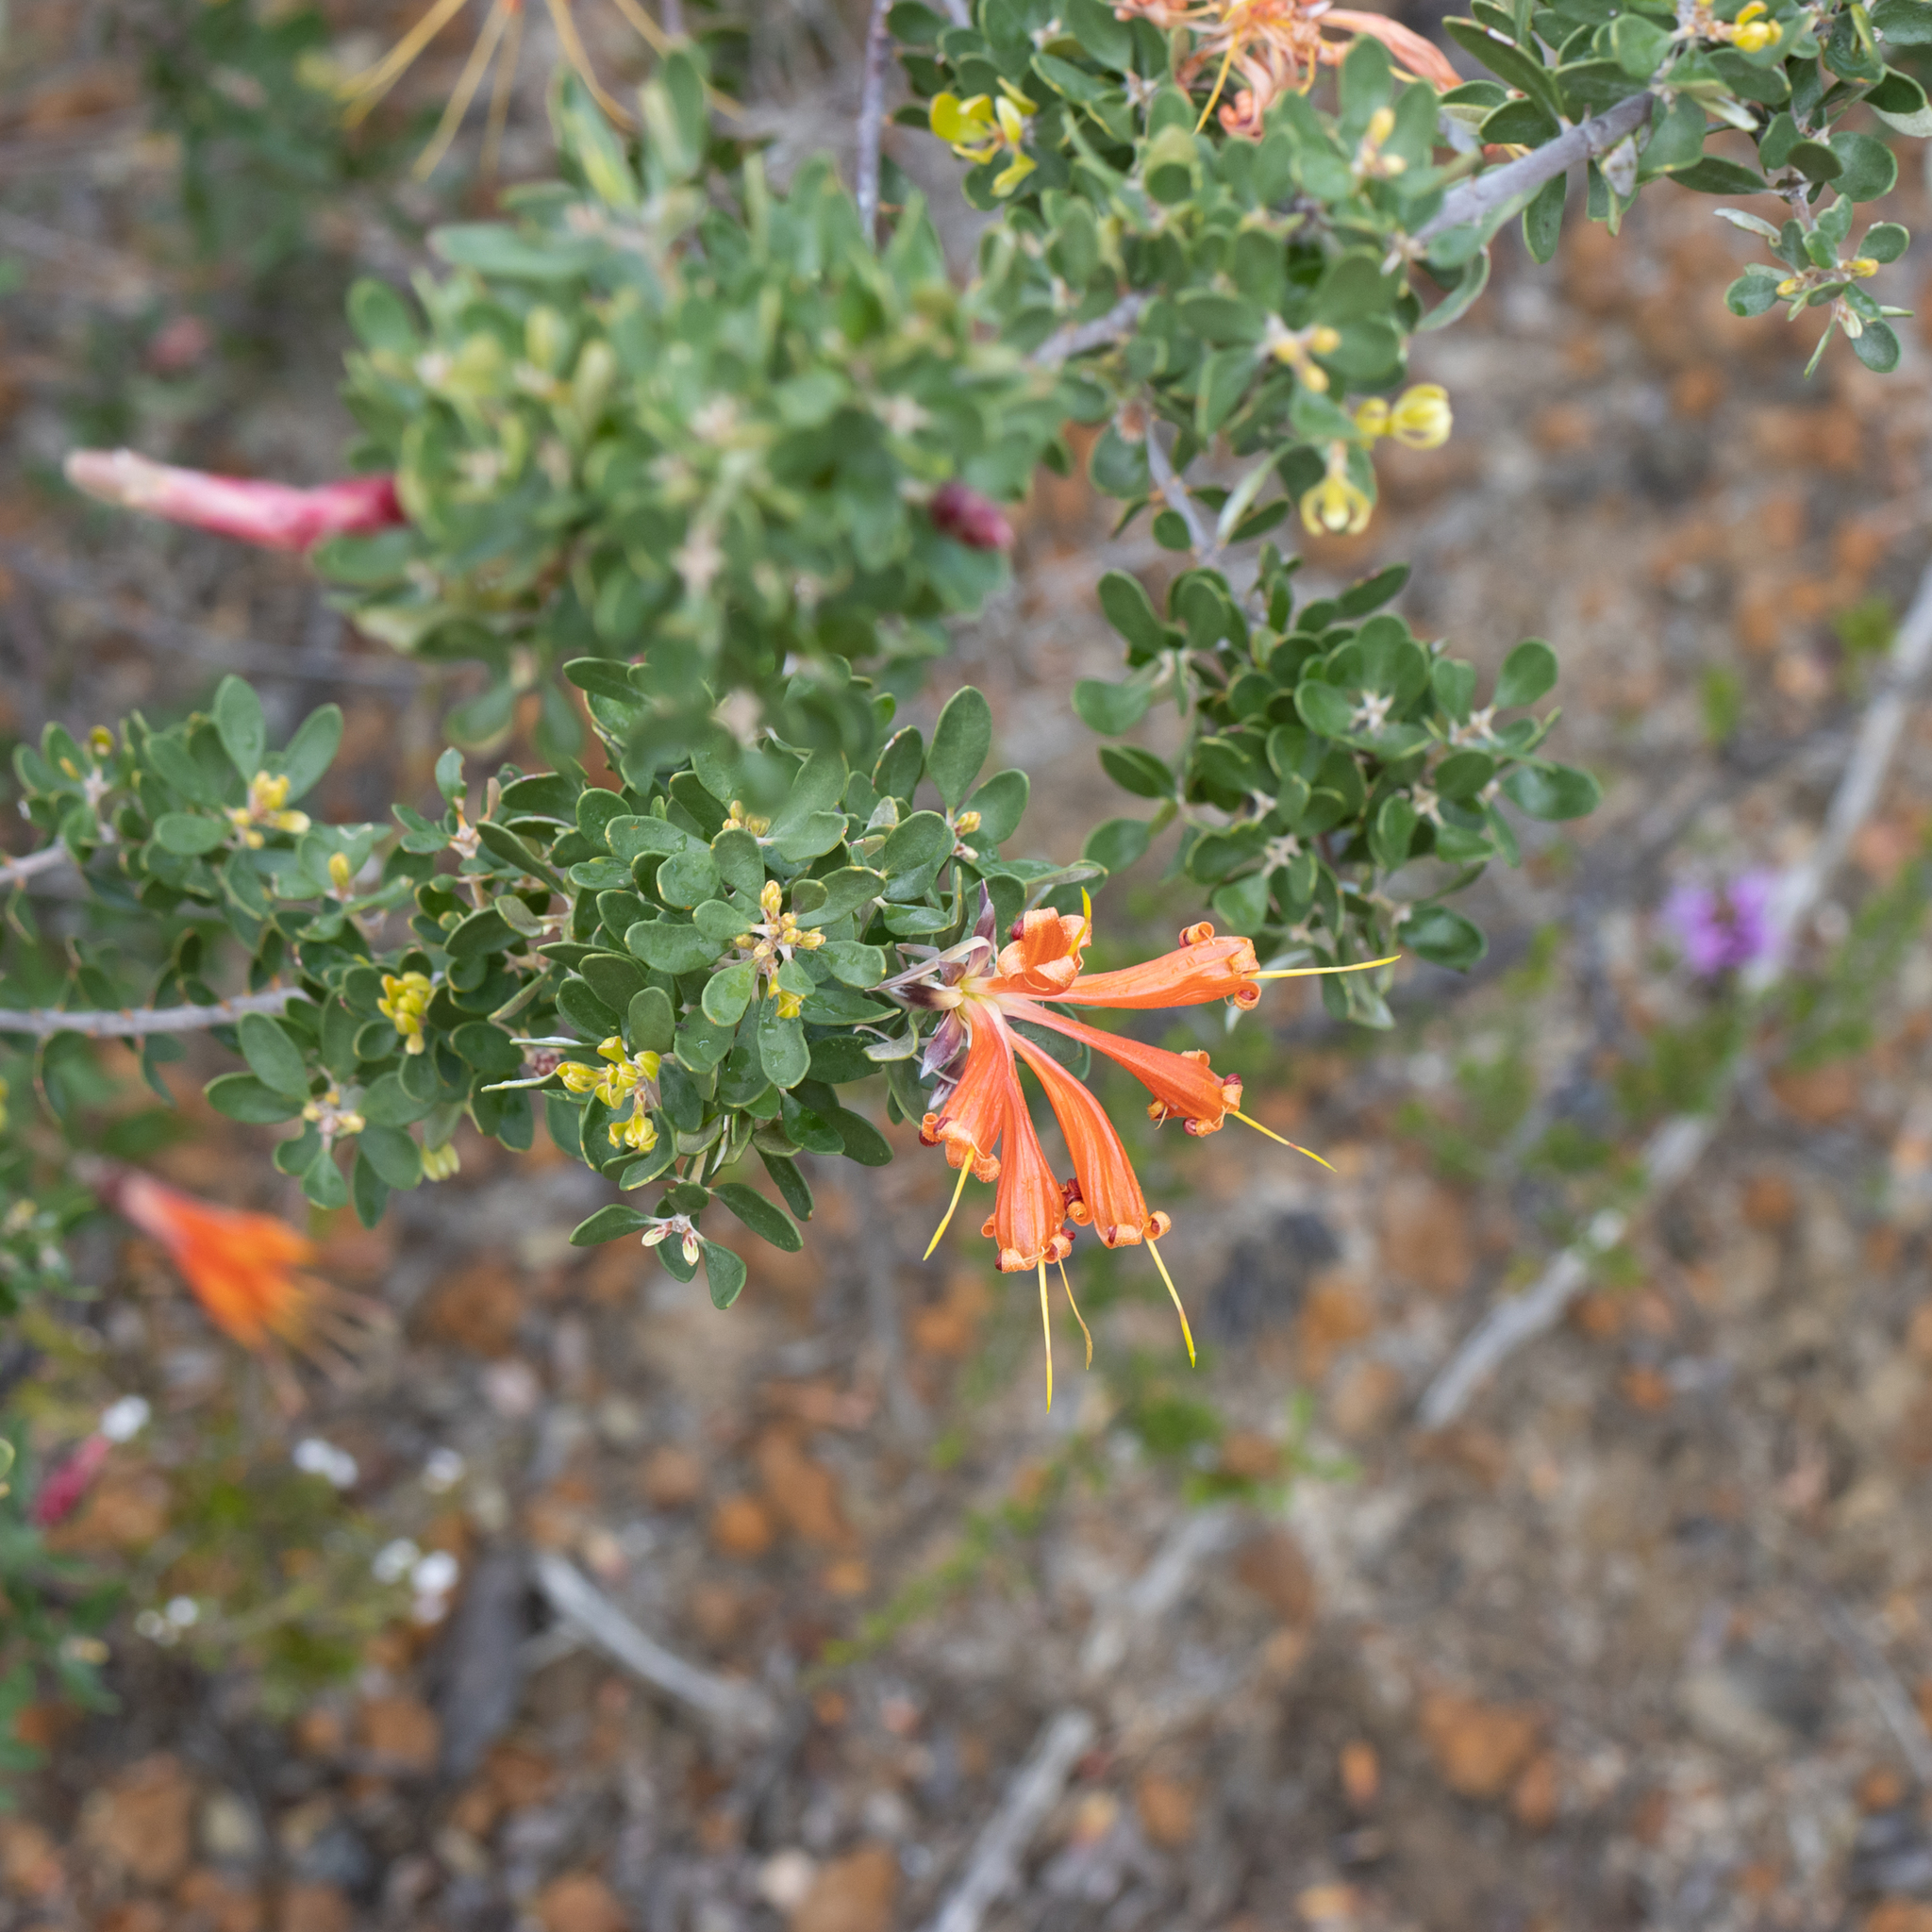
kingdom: Plantae
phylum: Tracheophyta
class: Magnoliopsida
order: Proteales
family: Proteaceae
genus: Lambertia
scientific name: Lambertia inermis
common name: Chittick
